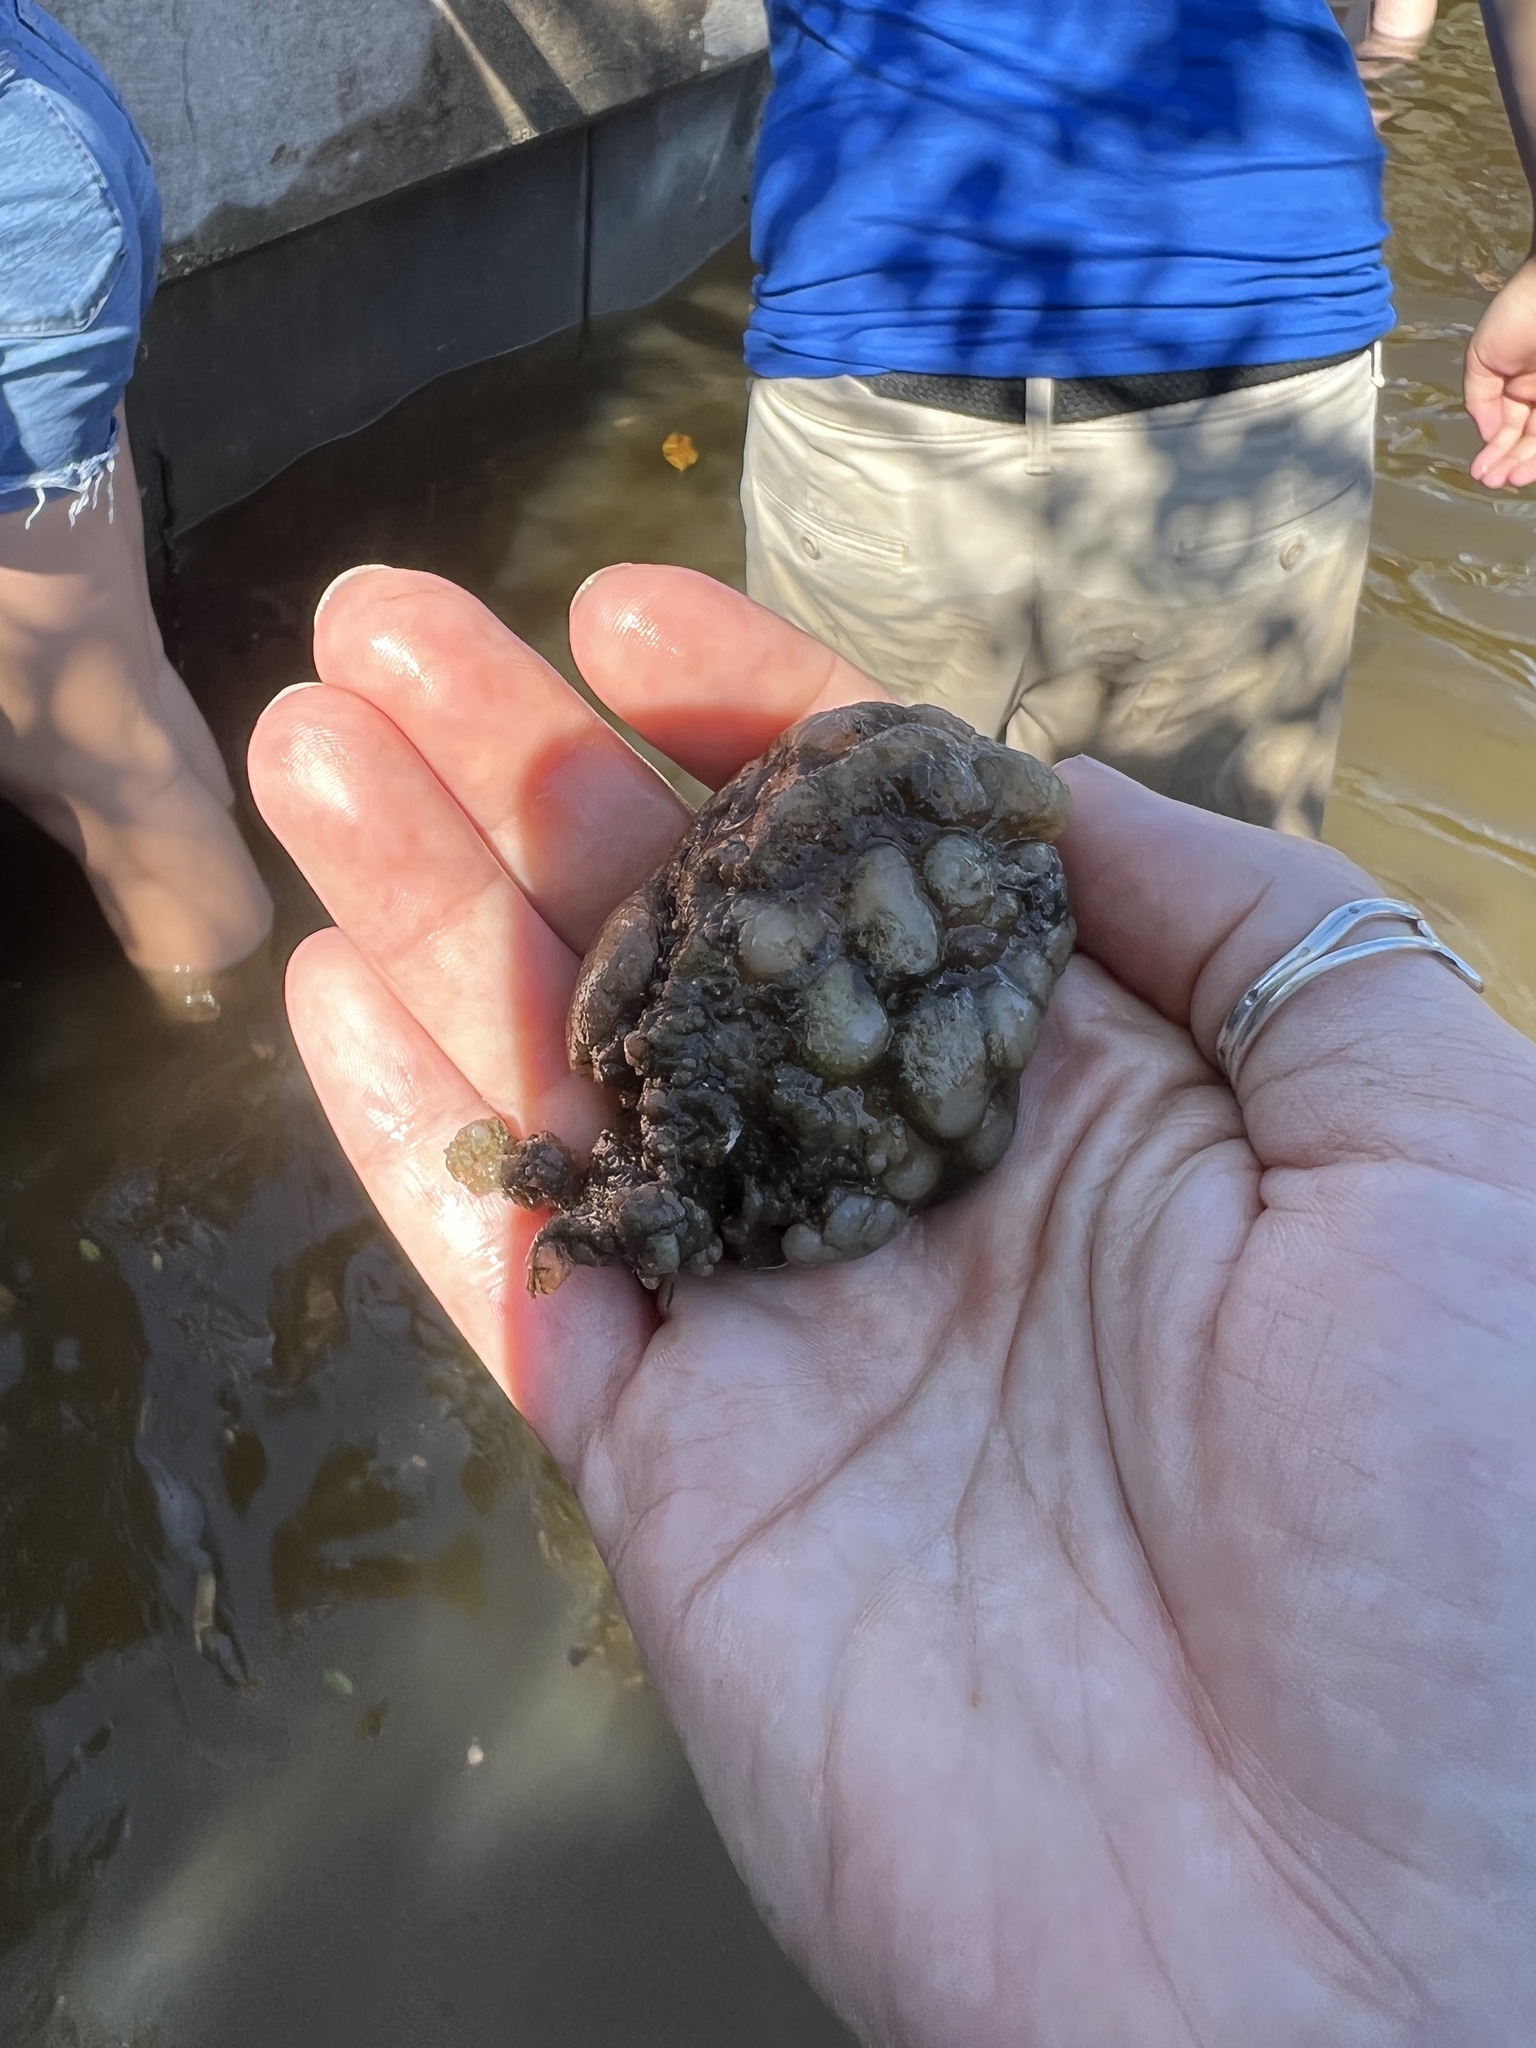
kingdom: Animalia
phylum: Chordata
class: Ascidiacea
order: Stolidobranchia
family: Styelidae
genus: Styela
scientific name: Styela plicata
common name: Pleated tunicate
